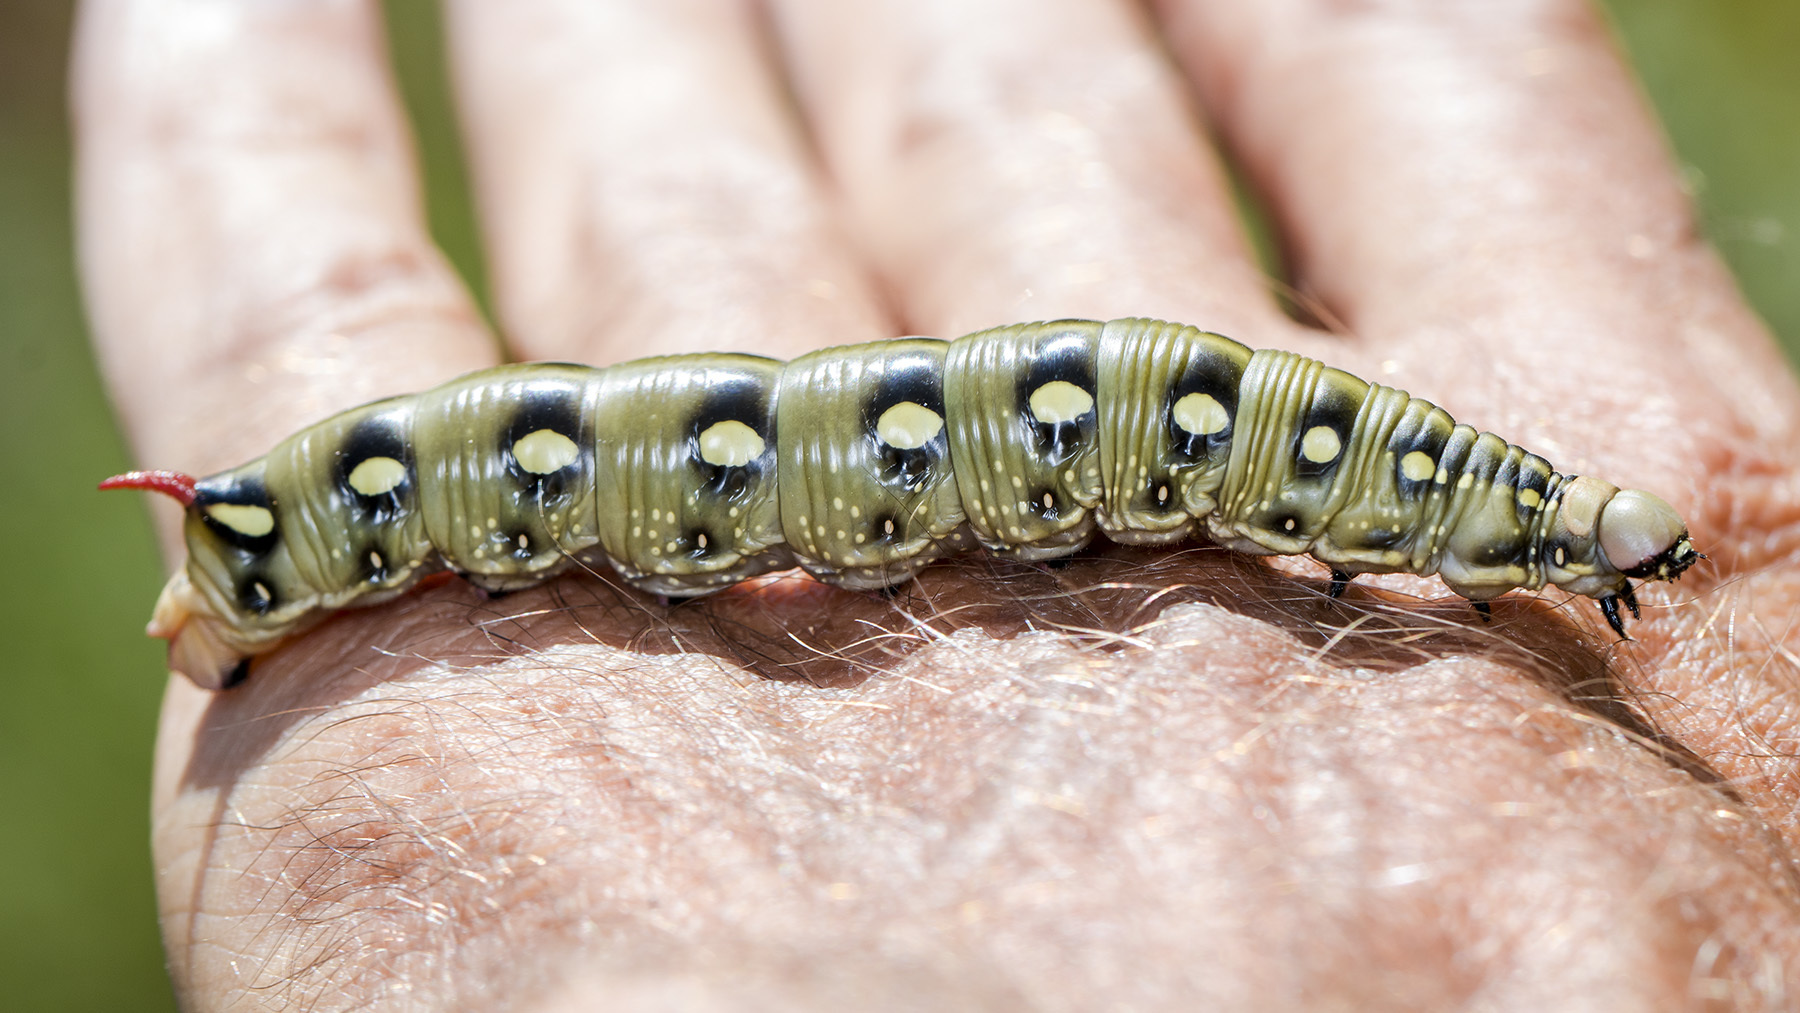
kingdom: Animalia
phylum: Arthropoda
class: Insecta
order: Lepidoptera
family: Sphingidae
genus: Hyles
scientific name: Hyles gallii
